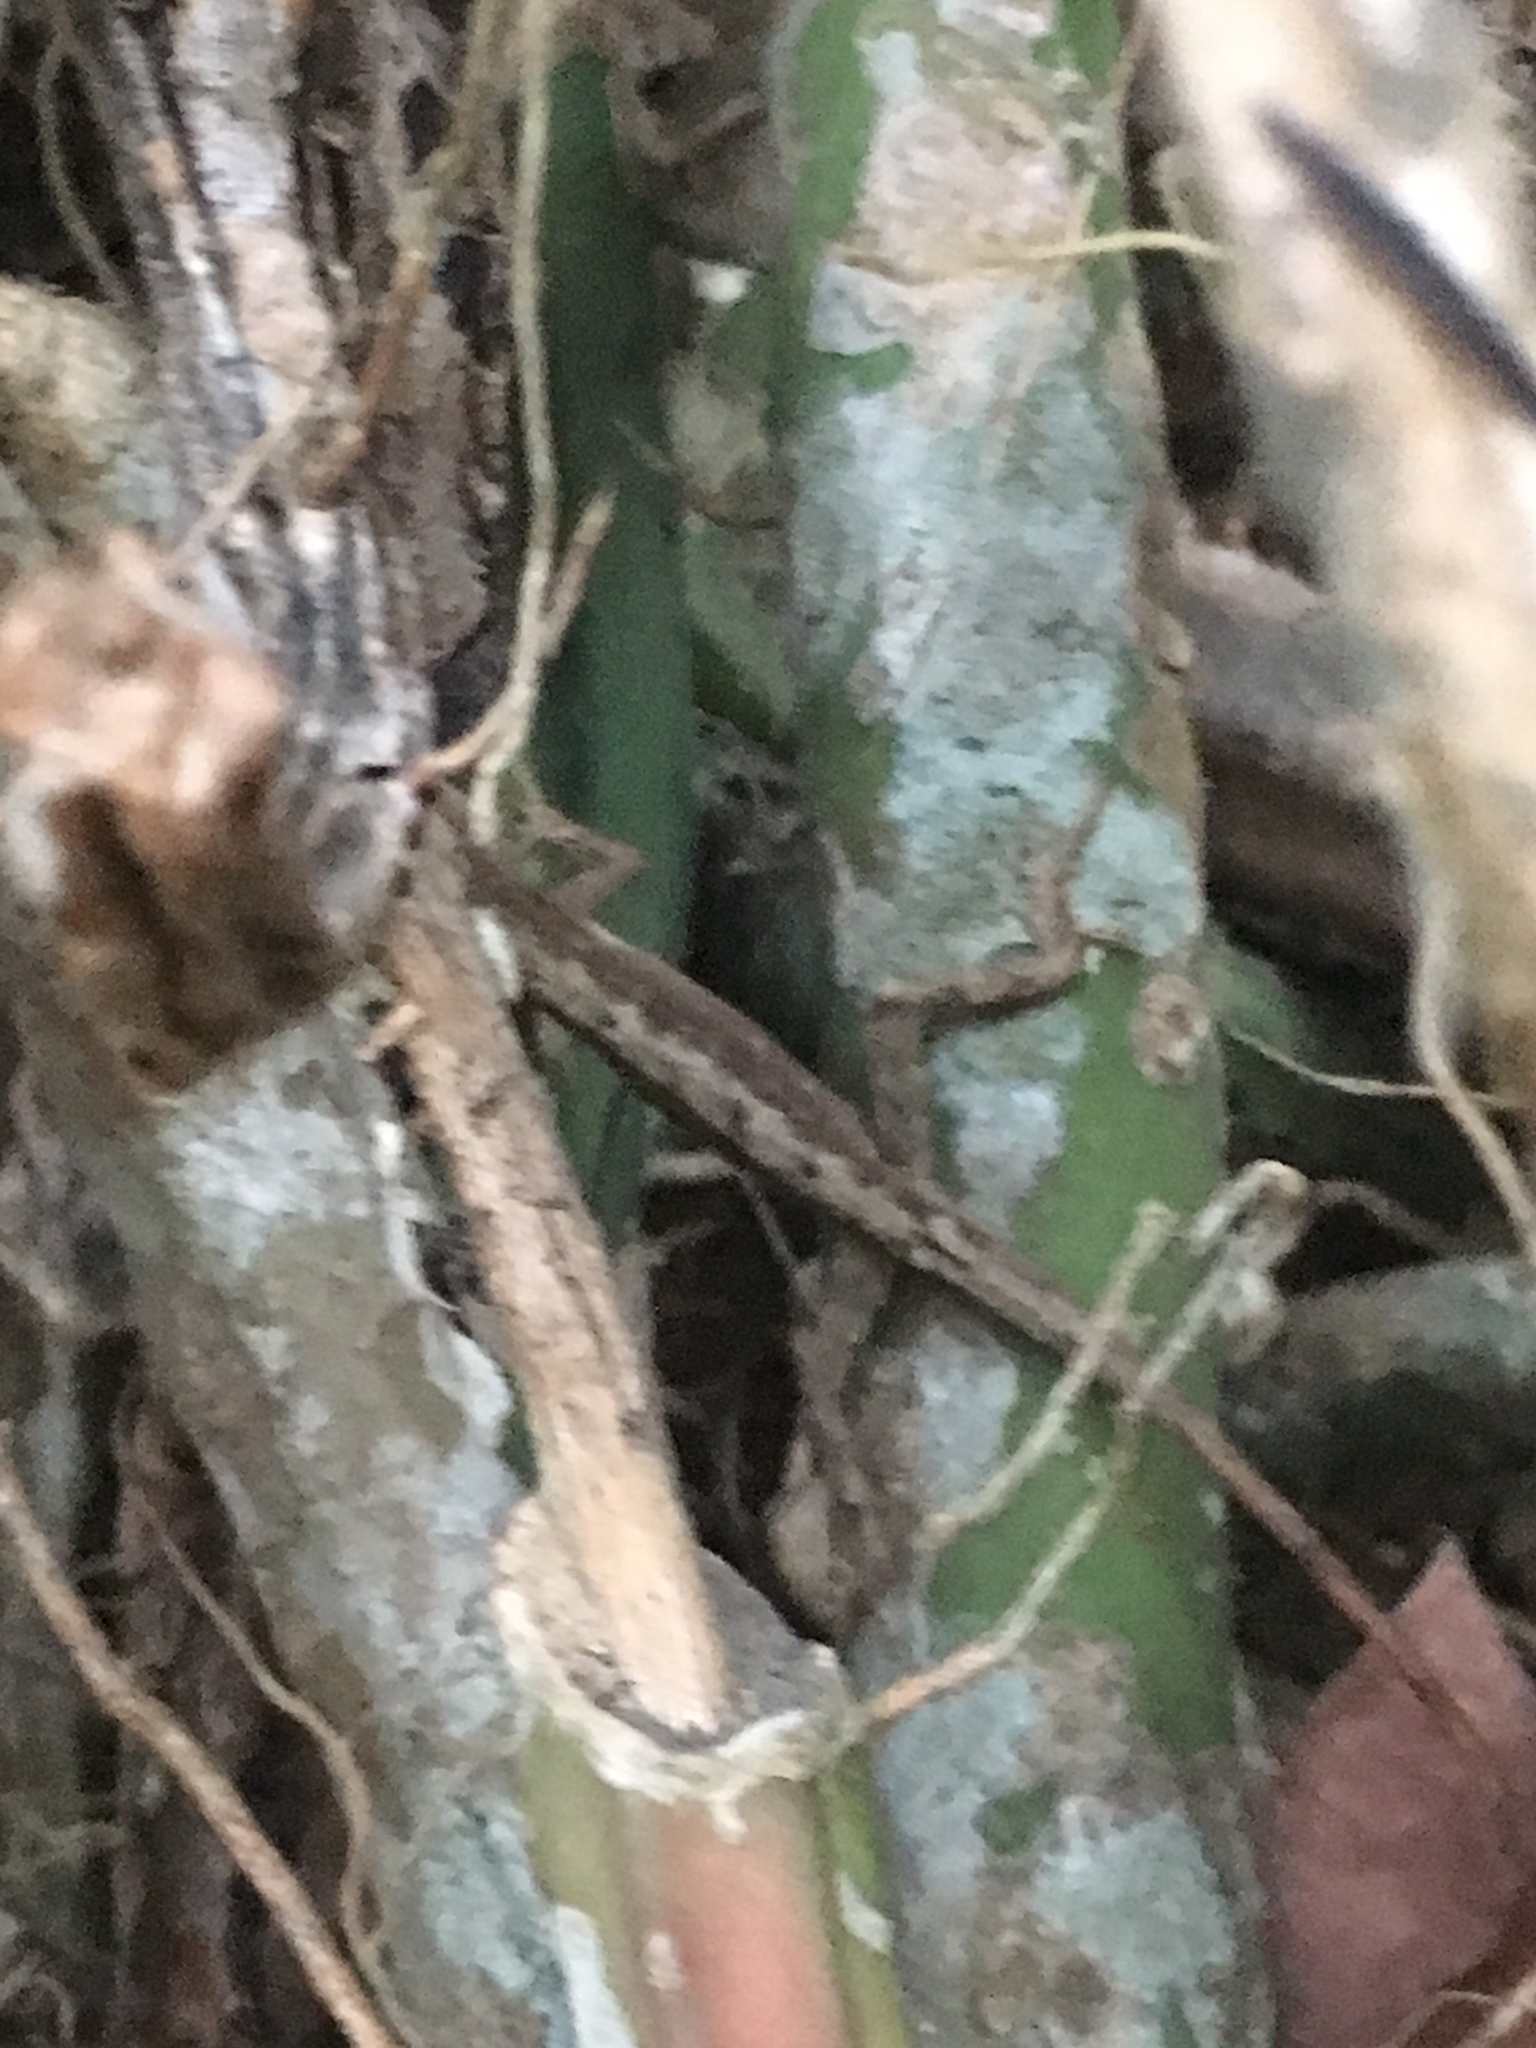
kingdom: Animalia
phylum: Chordata
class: Squamata
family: Dactyloidae
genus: Anolis
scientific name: Anolis sericeus
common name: Silky anole
